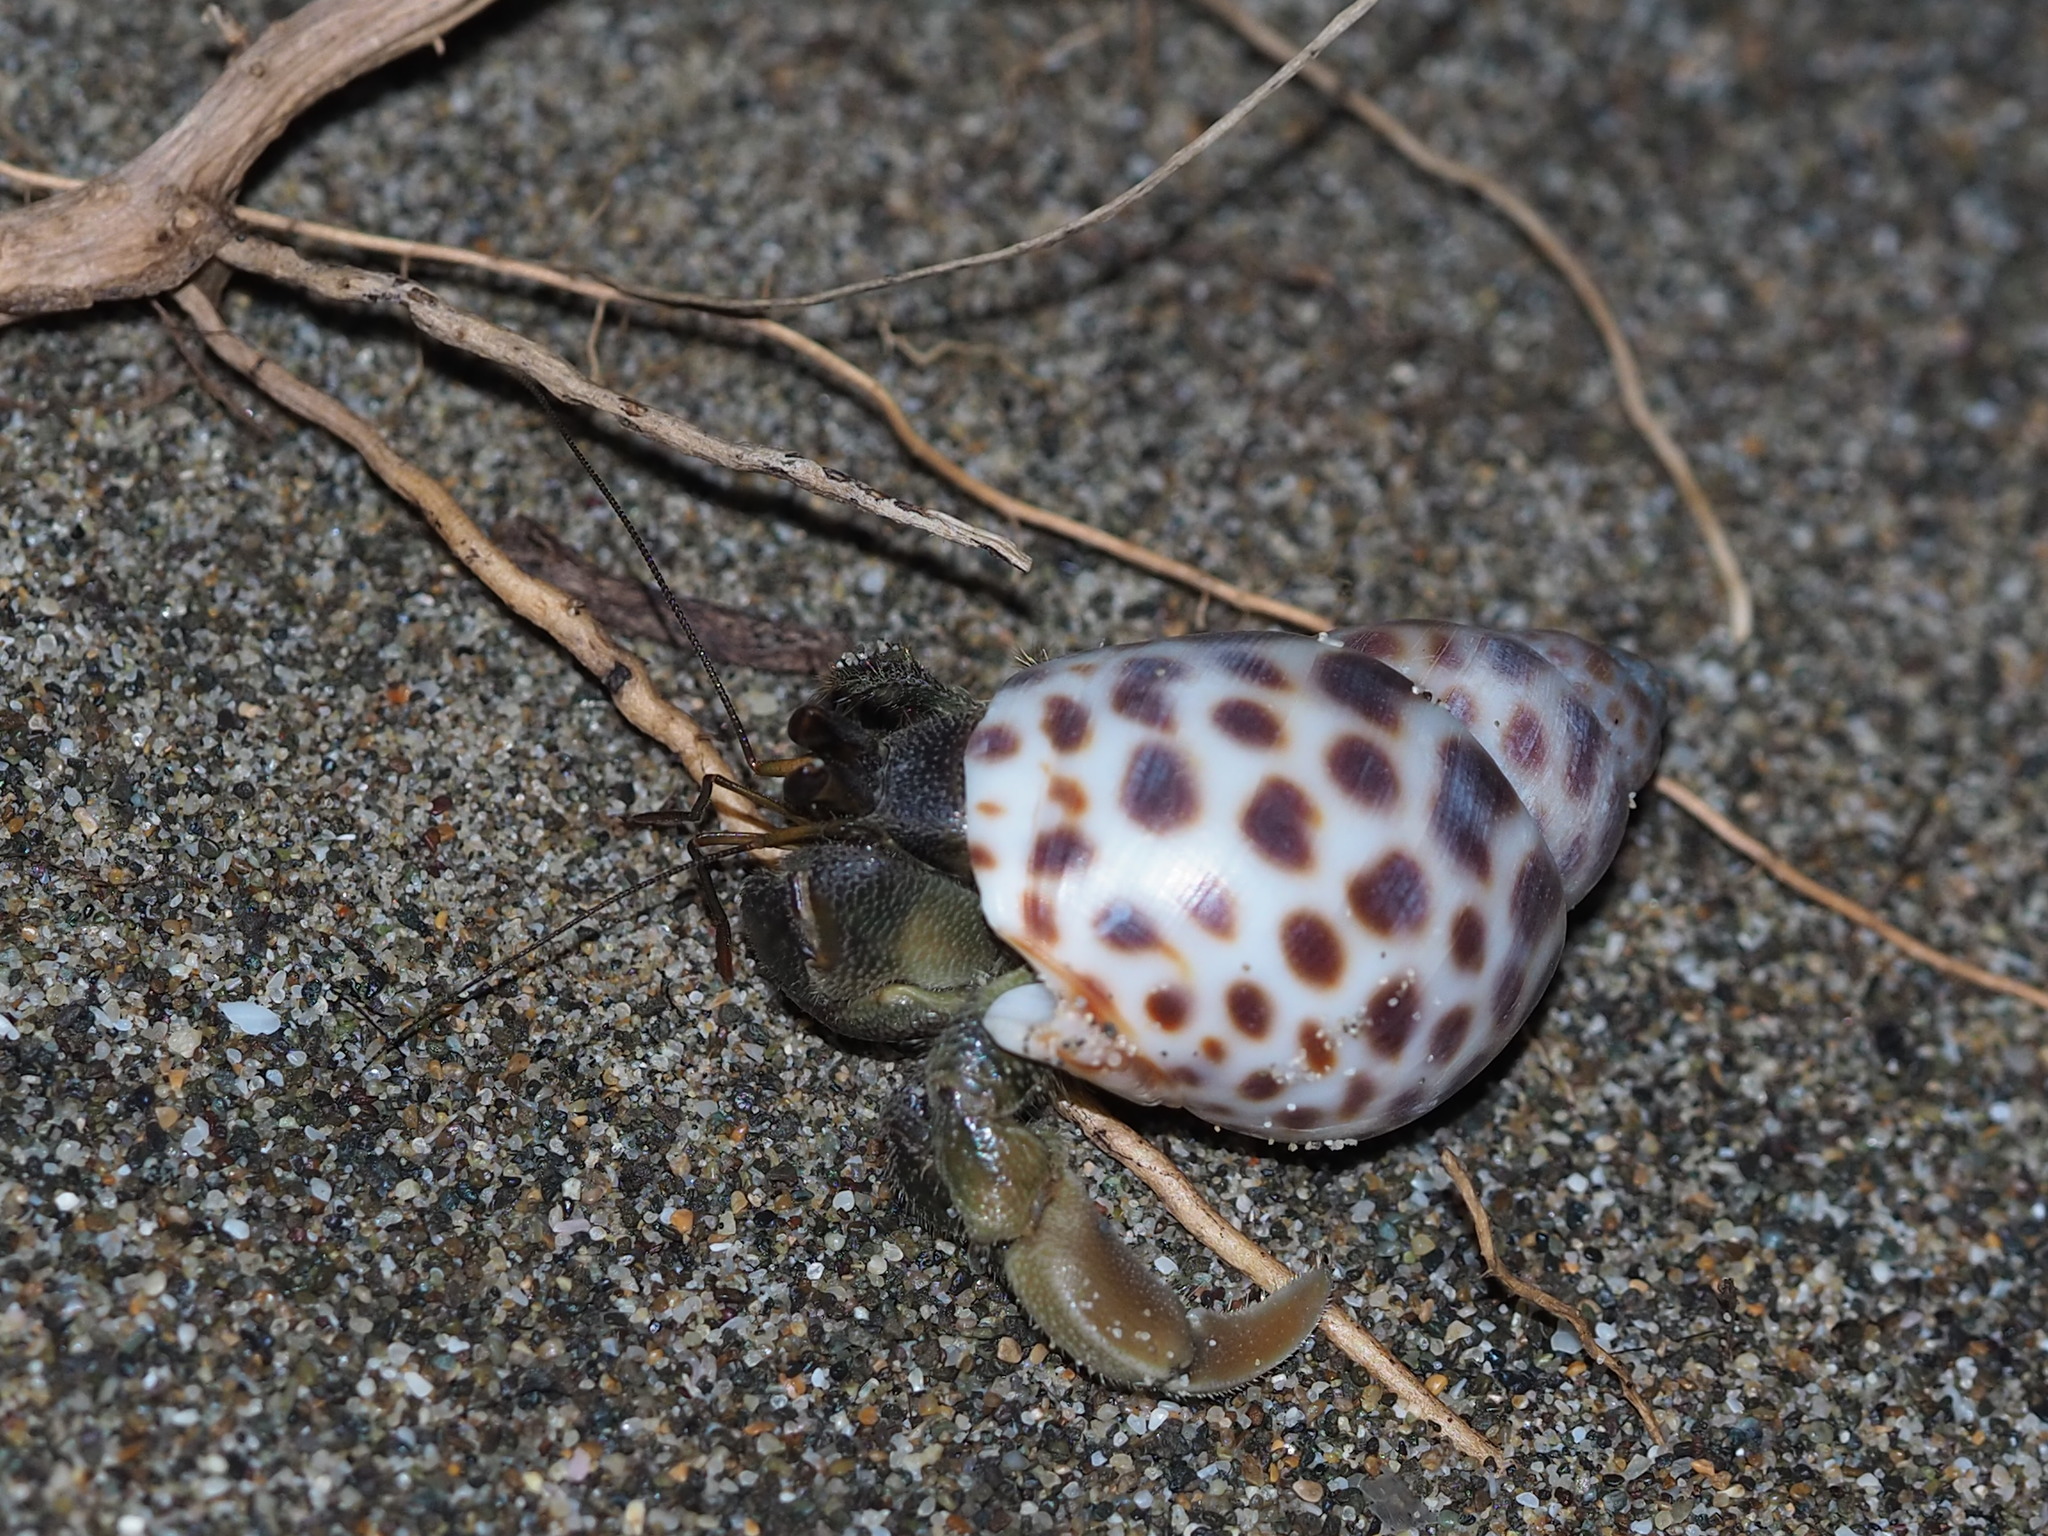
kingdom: Animalia
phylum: Arthropoda
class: Malacostraca
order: Decapoda
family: Coenobitidae
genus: Coenobita
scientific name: Coenobita rugosus
